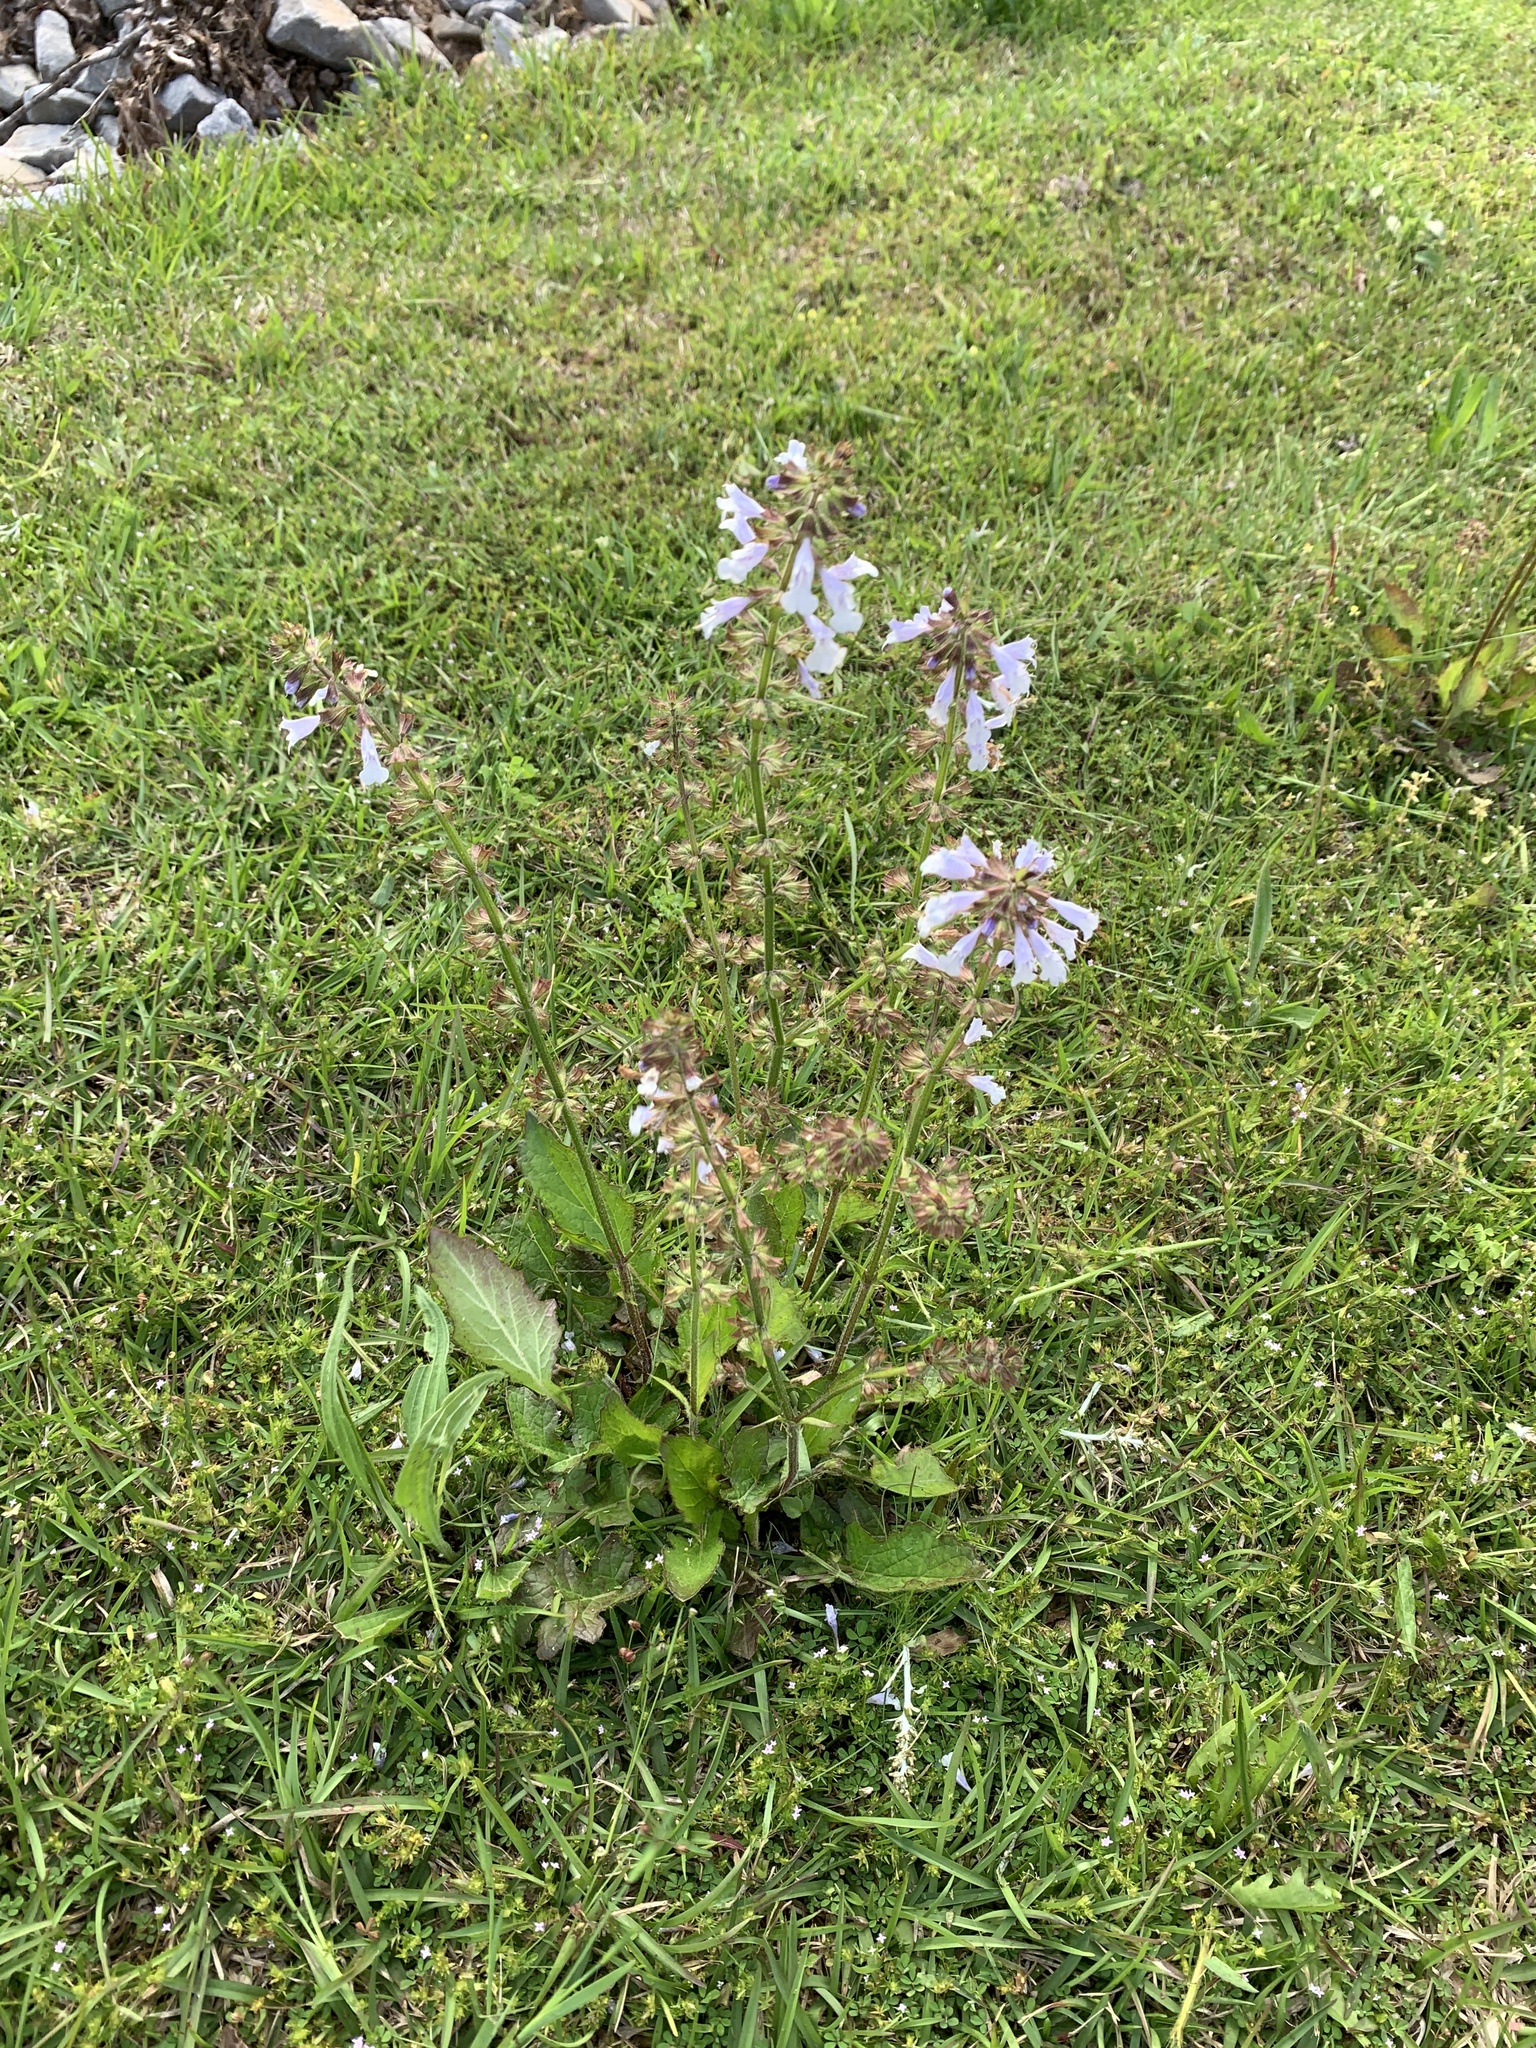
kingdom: Plantae
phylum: Tracheophyta
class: Magnoliopsida
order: Lamiales
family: Lamiaceae
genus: Salvia
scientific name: Salvia lyrata
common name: Cancerweed
